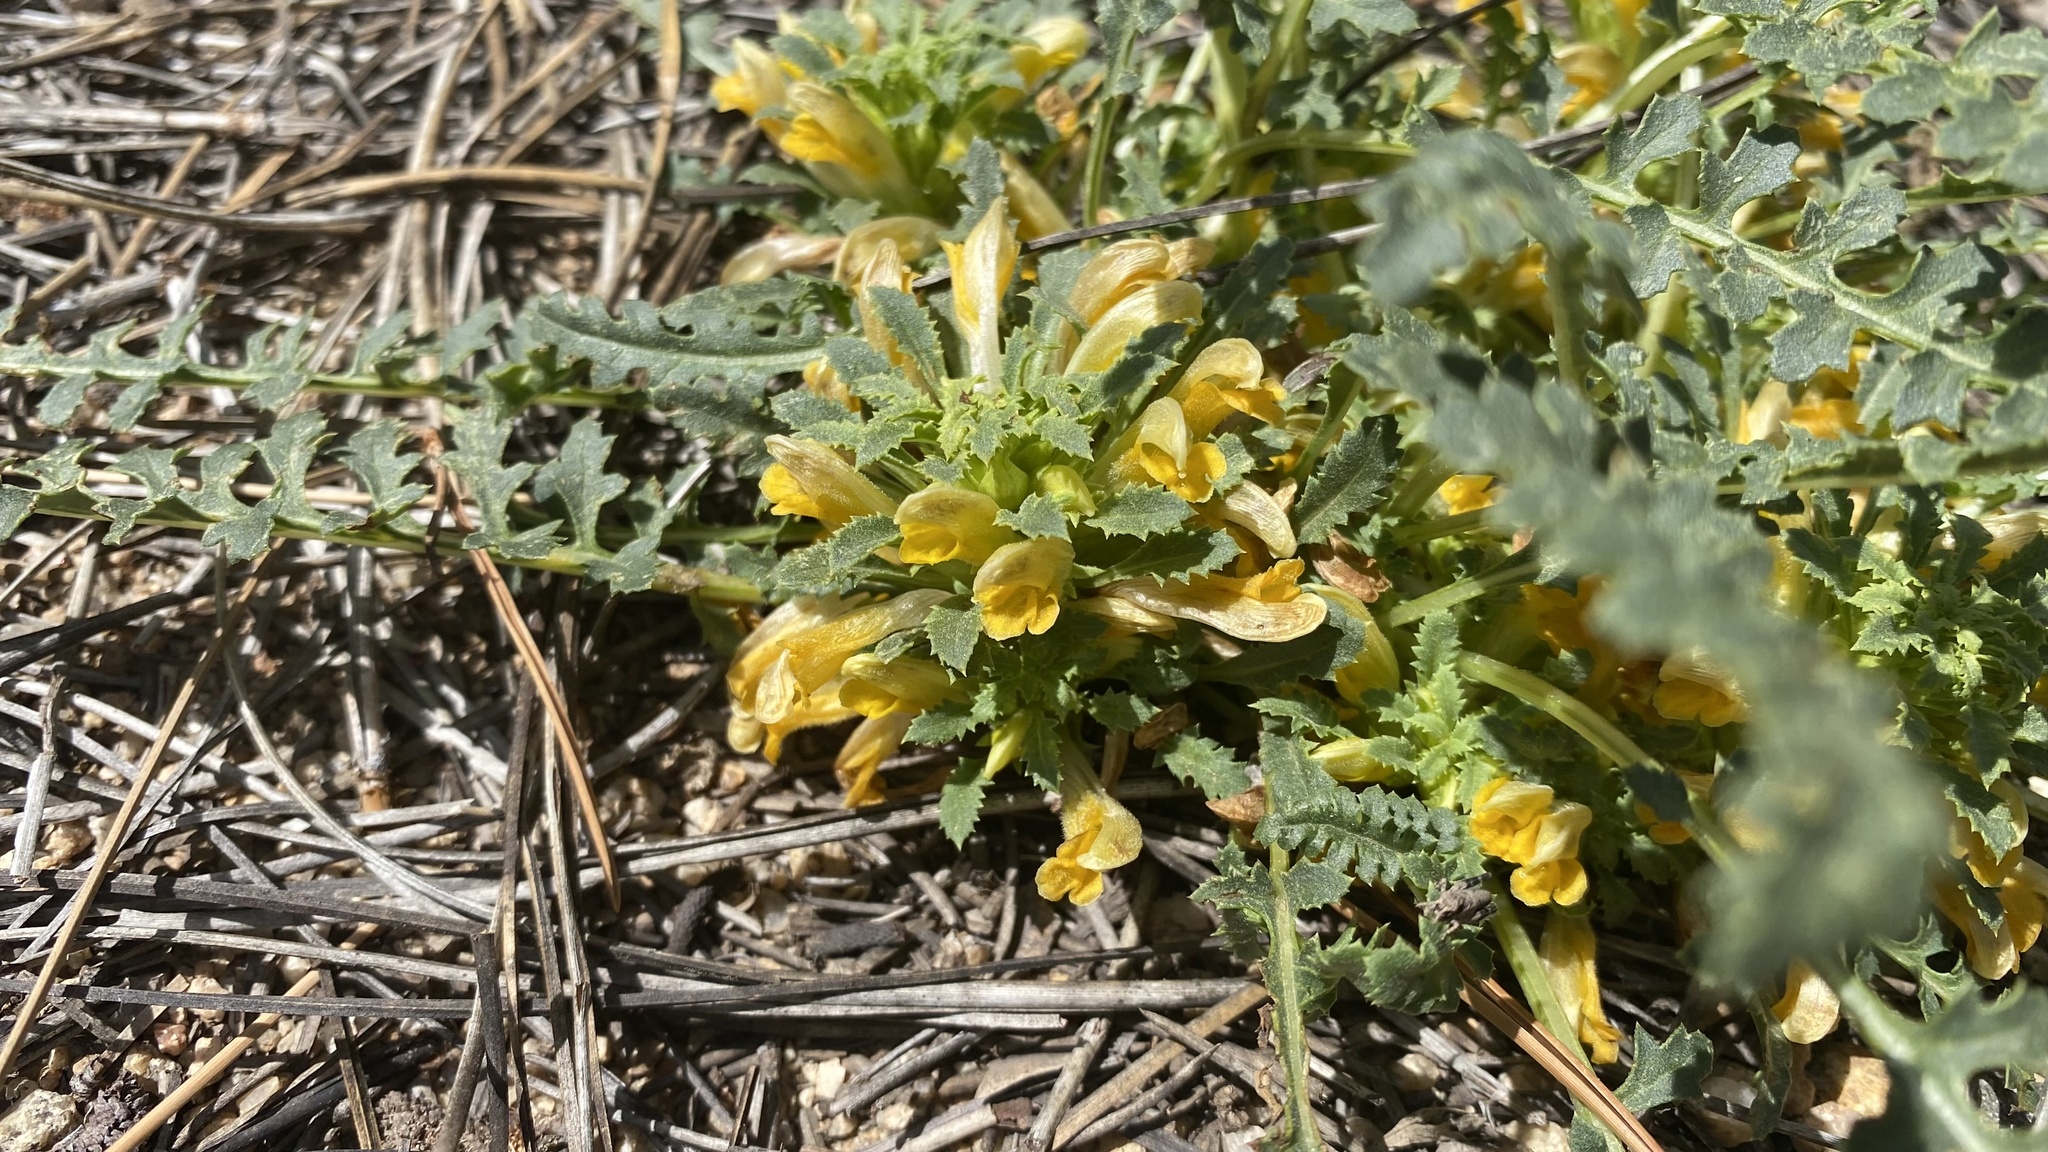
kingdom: Plantae
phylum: Tracheophyta
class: Magnoliopsida
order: Lamiales
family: Orobanchaceae
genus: Pedicularis
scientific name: Pedicularis semibarbata
